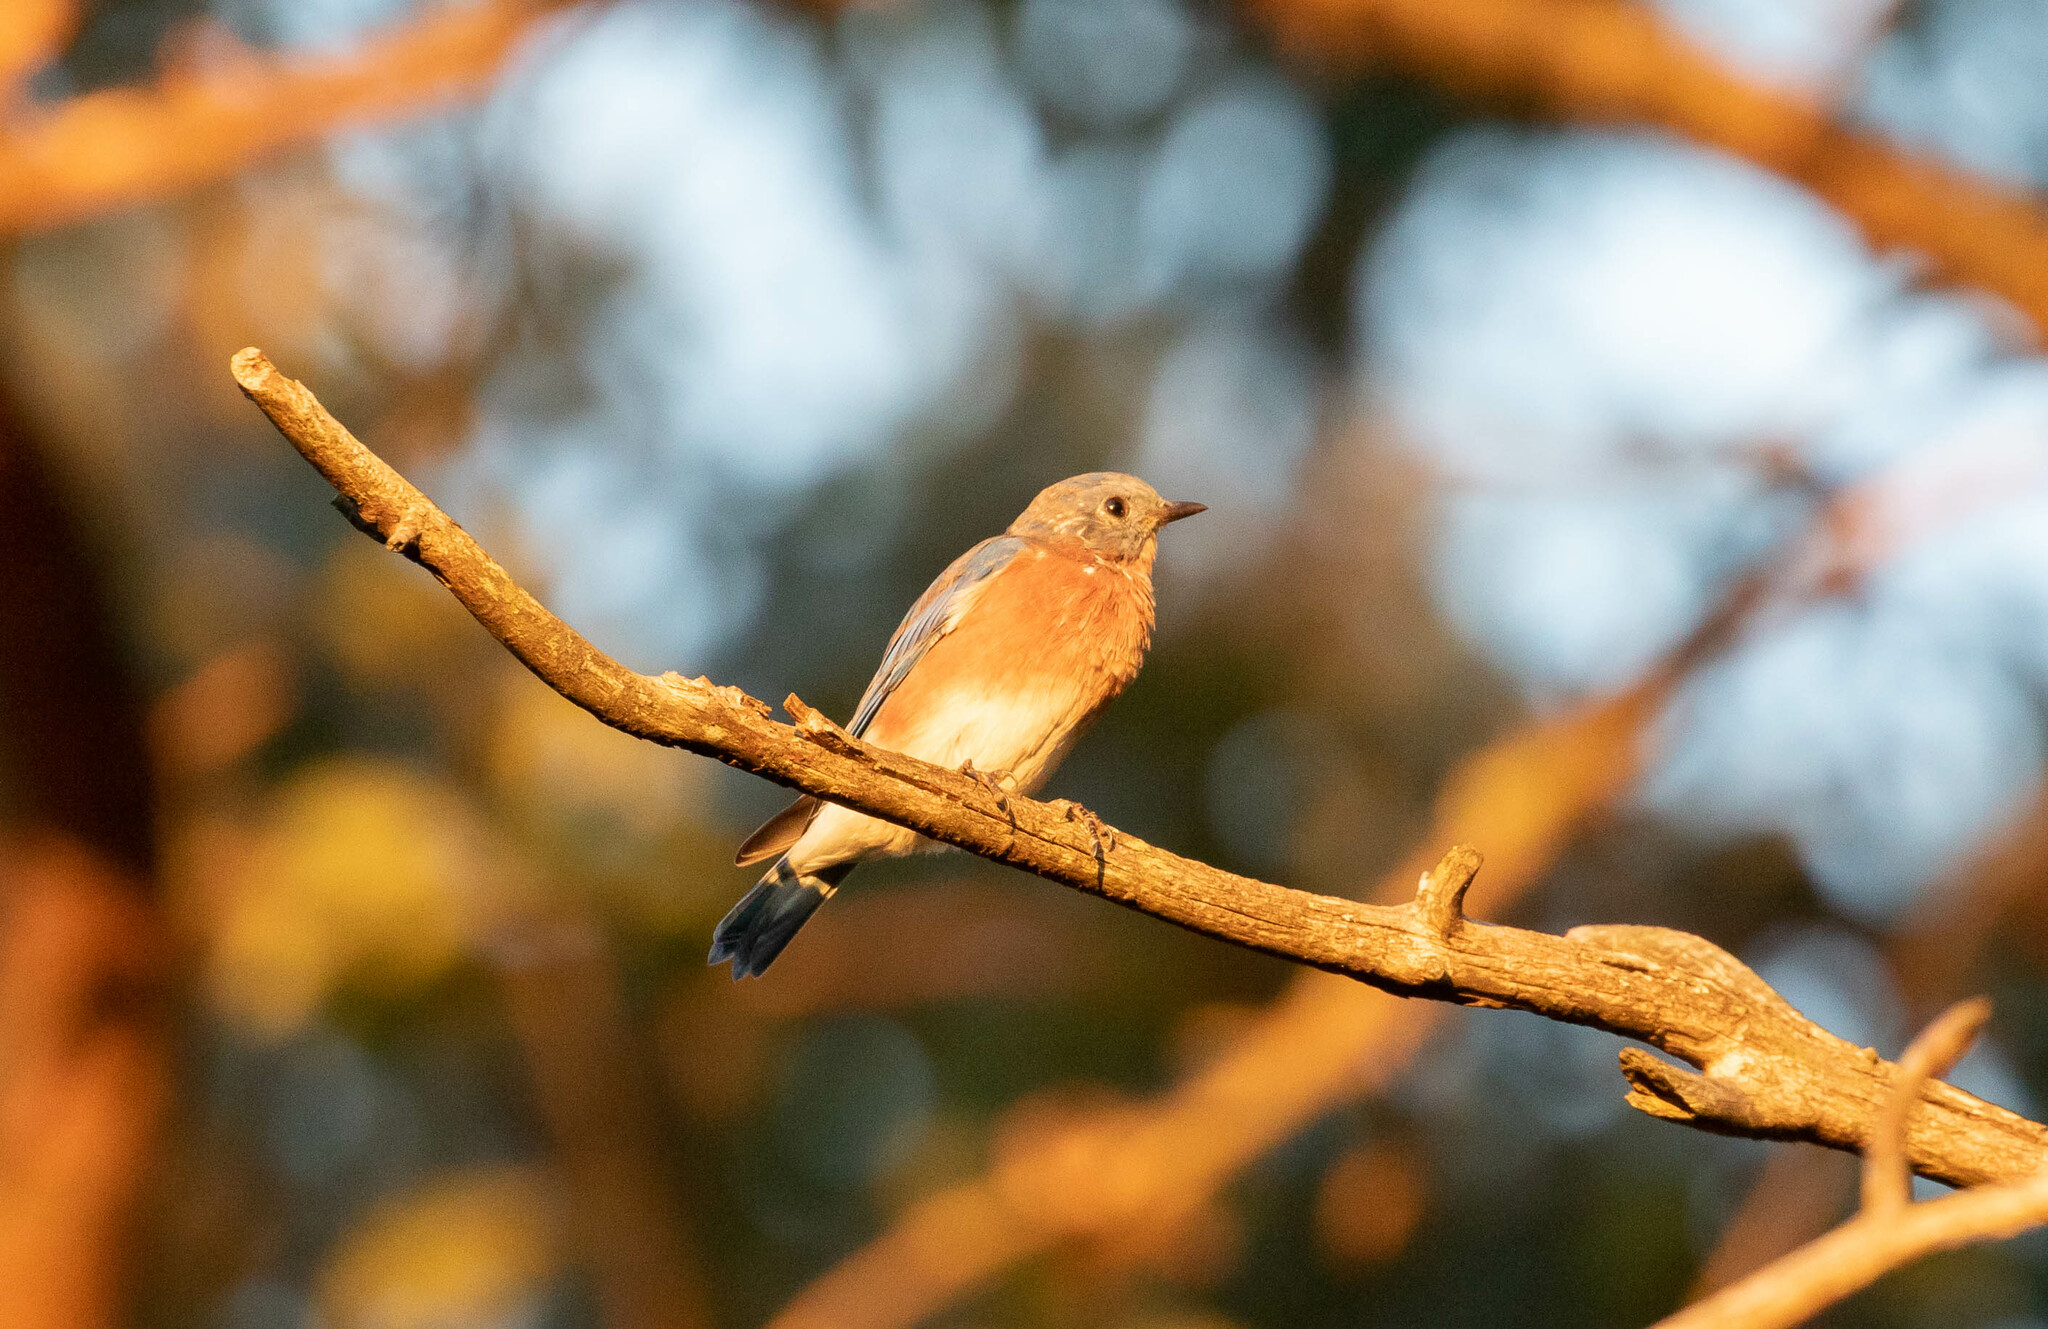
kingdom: Animalia
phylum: Chordata
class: Aves
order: Passeriformes
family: Turdidae
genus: Sialia
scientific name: Sialia sialis
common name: Eastern bluebird
